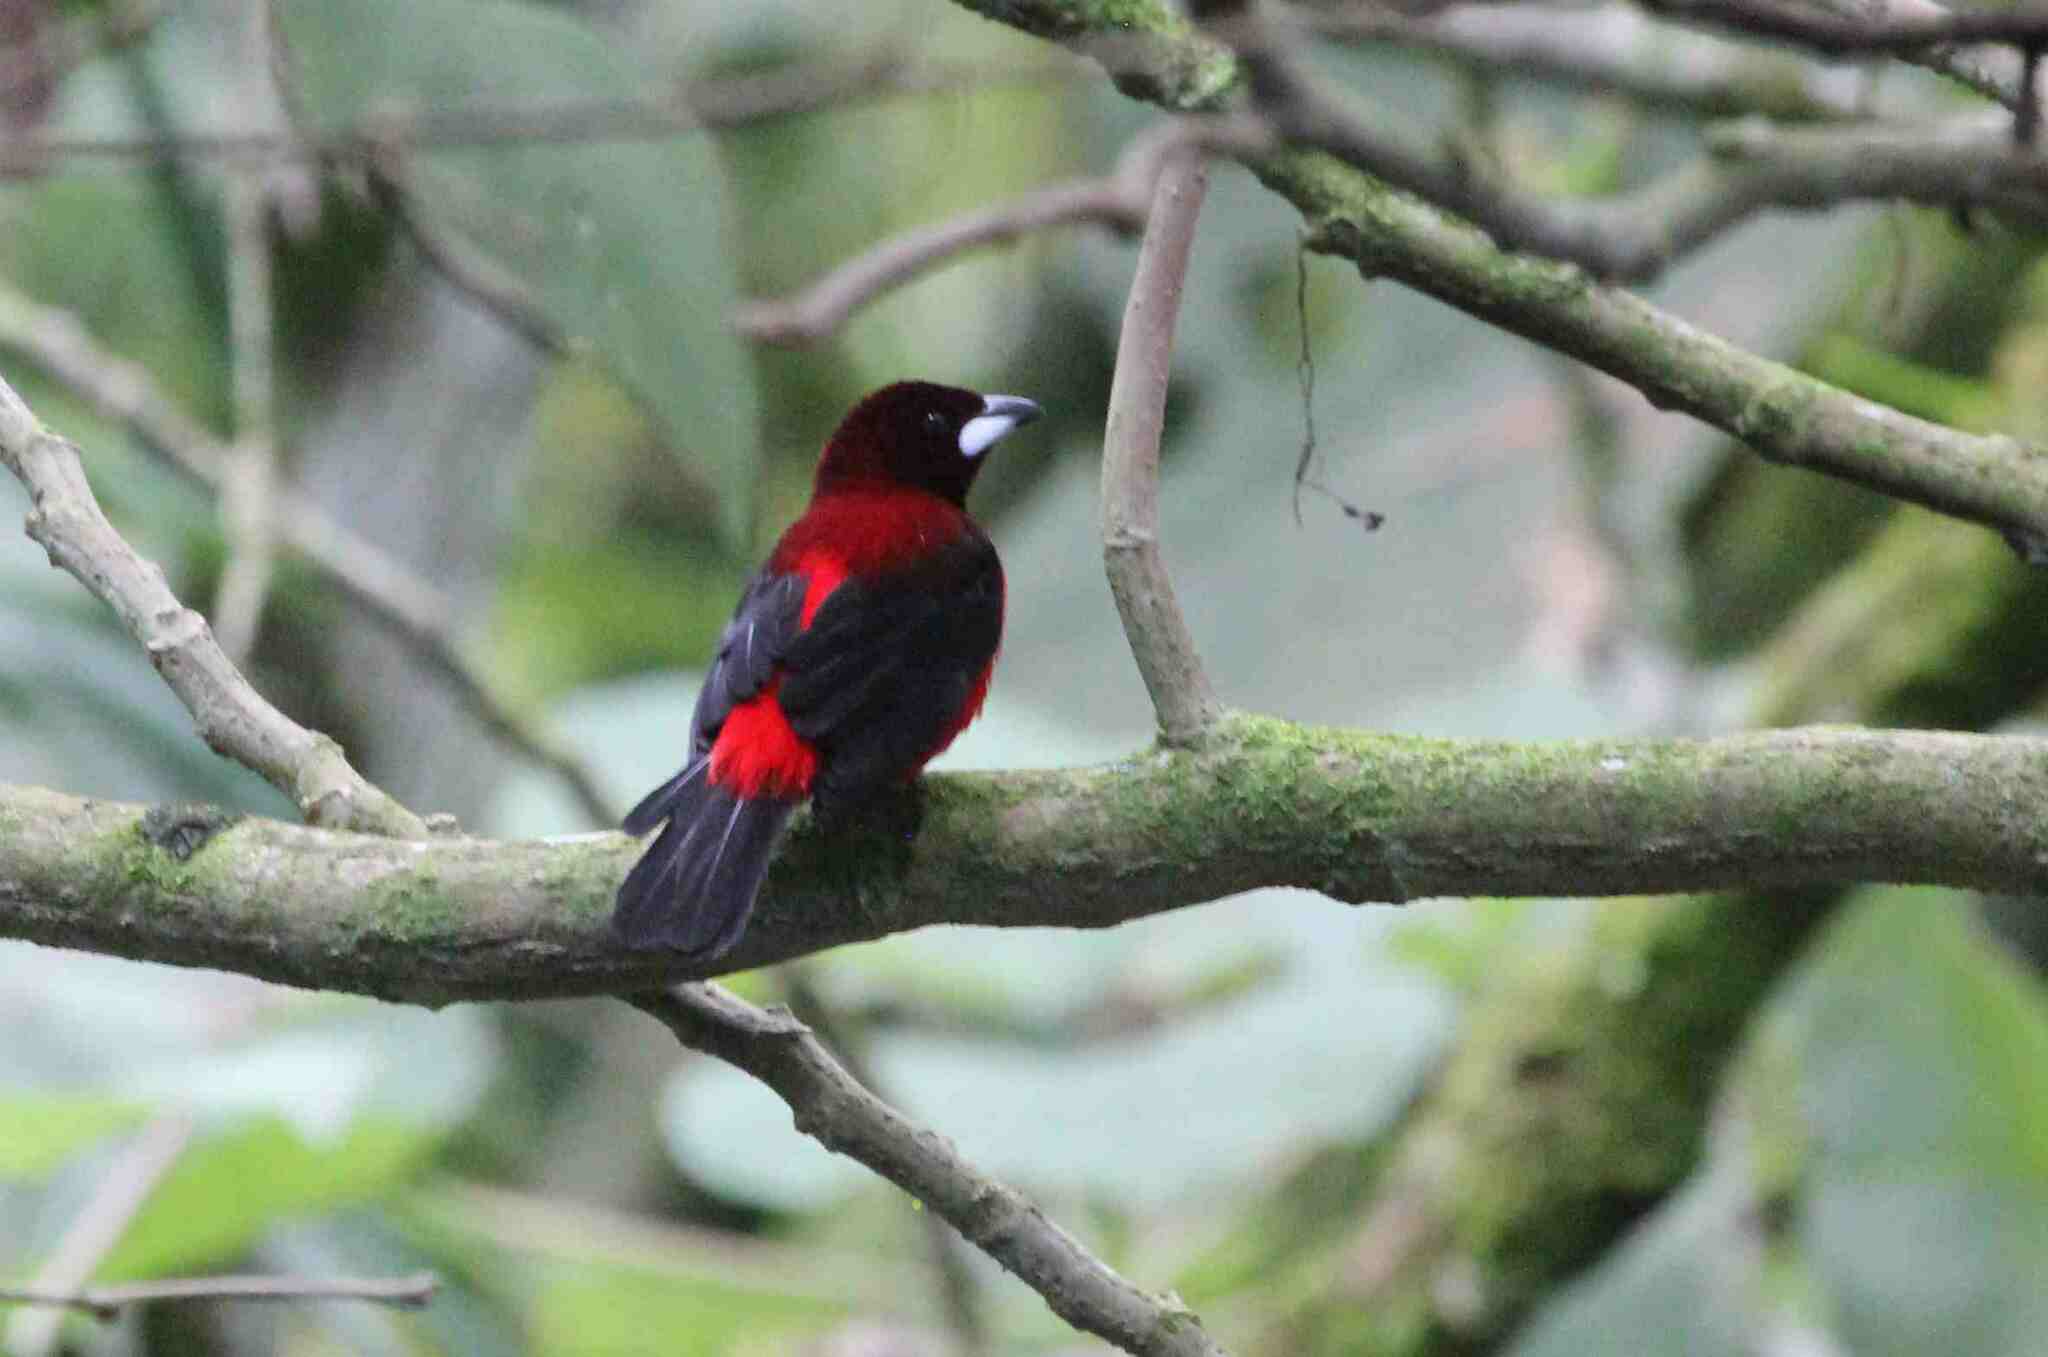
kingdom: Animalia
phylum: Chordata
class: Aves
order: Passeriformes
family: Thraupidae
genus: Ramphocelus
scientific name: Ramphocelus dimidiatus
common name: Crimson-backed tanager
